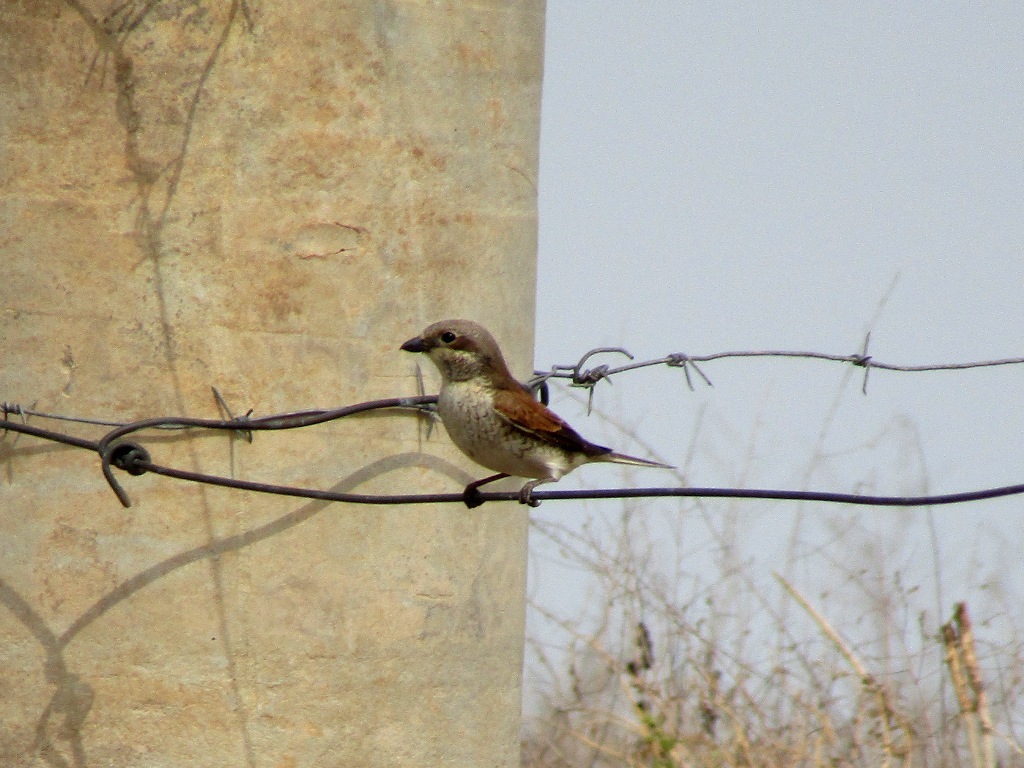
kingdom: Animalia
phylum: Chordata
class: Aves
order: Passeriformes
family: Laniidae
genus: Lanius
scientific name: Lanius collurio
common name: Red-backed shrike
